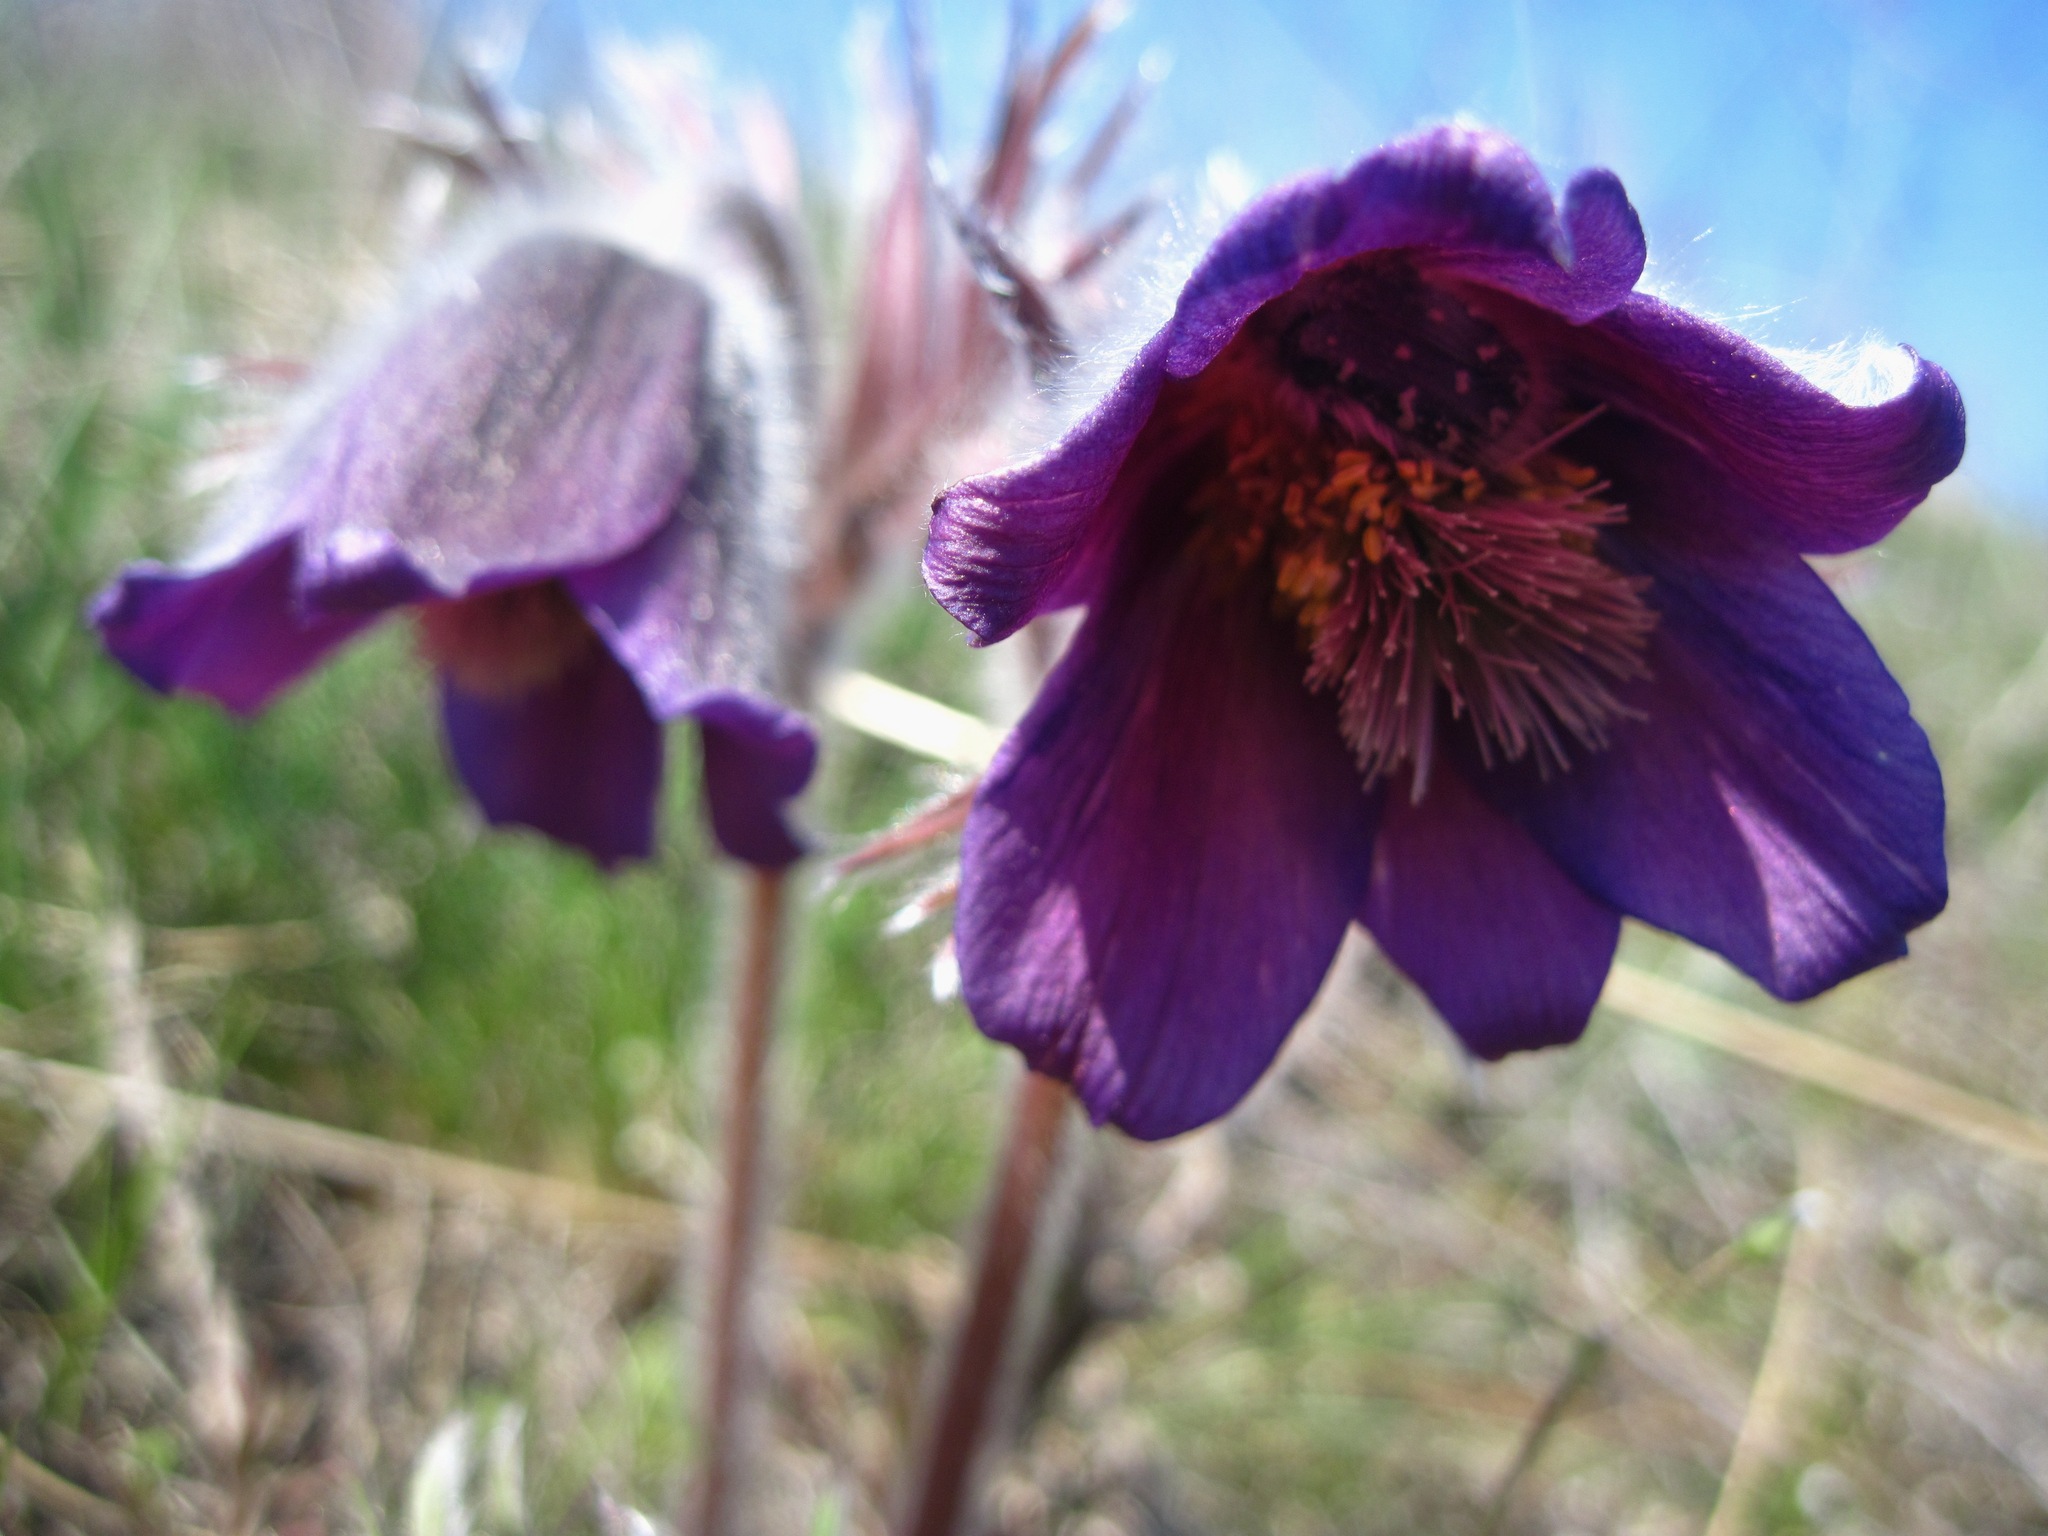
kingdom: Plantae
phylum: Tracheophyta
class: Magnoliopsida
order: Ranunculales
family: Ranunculaceae
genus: Pulsatilla
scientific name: Pulsatilla pratensis
